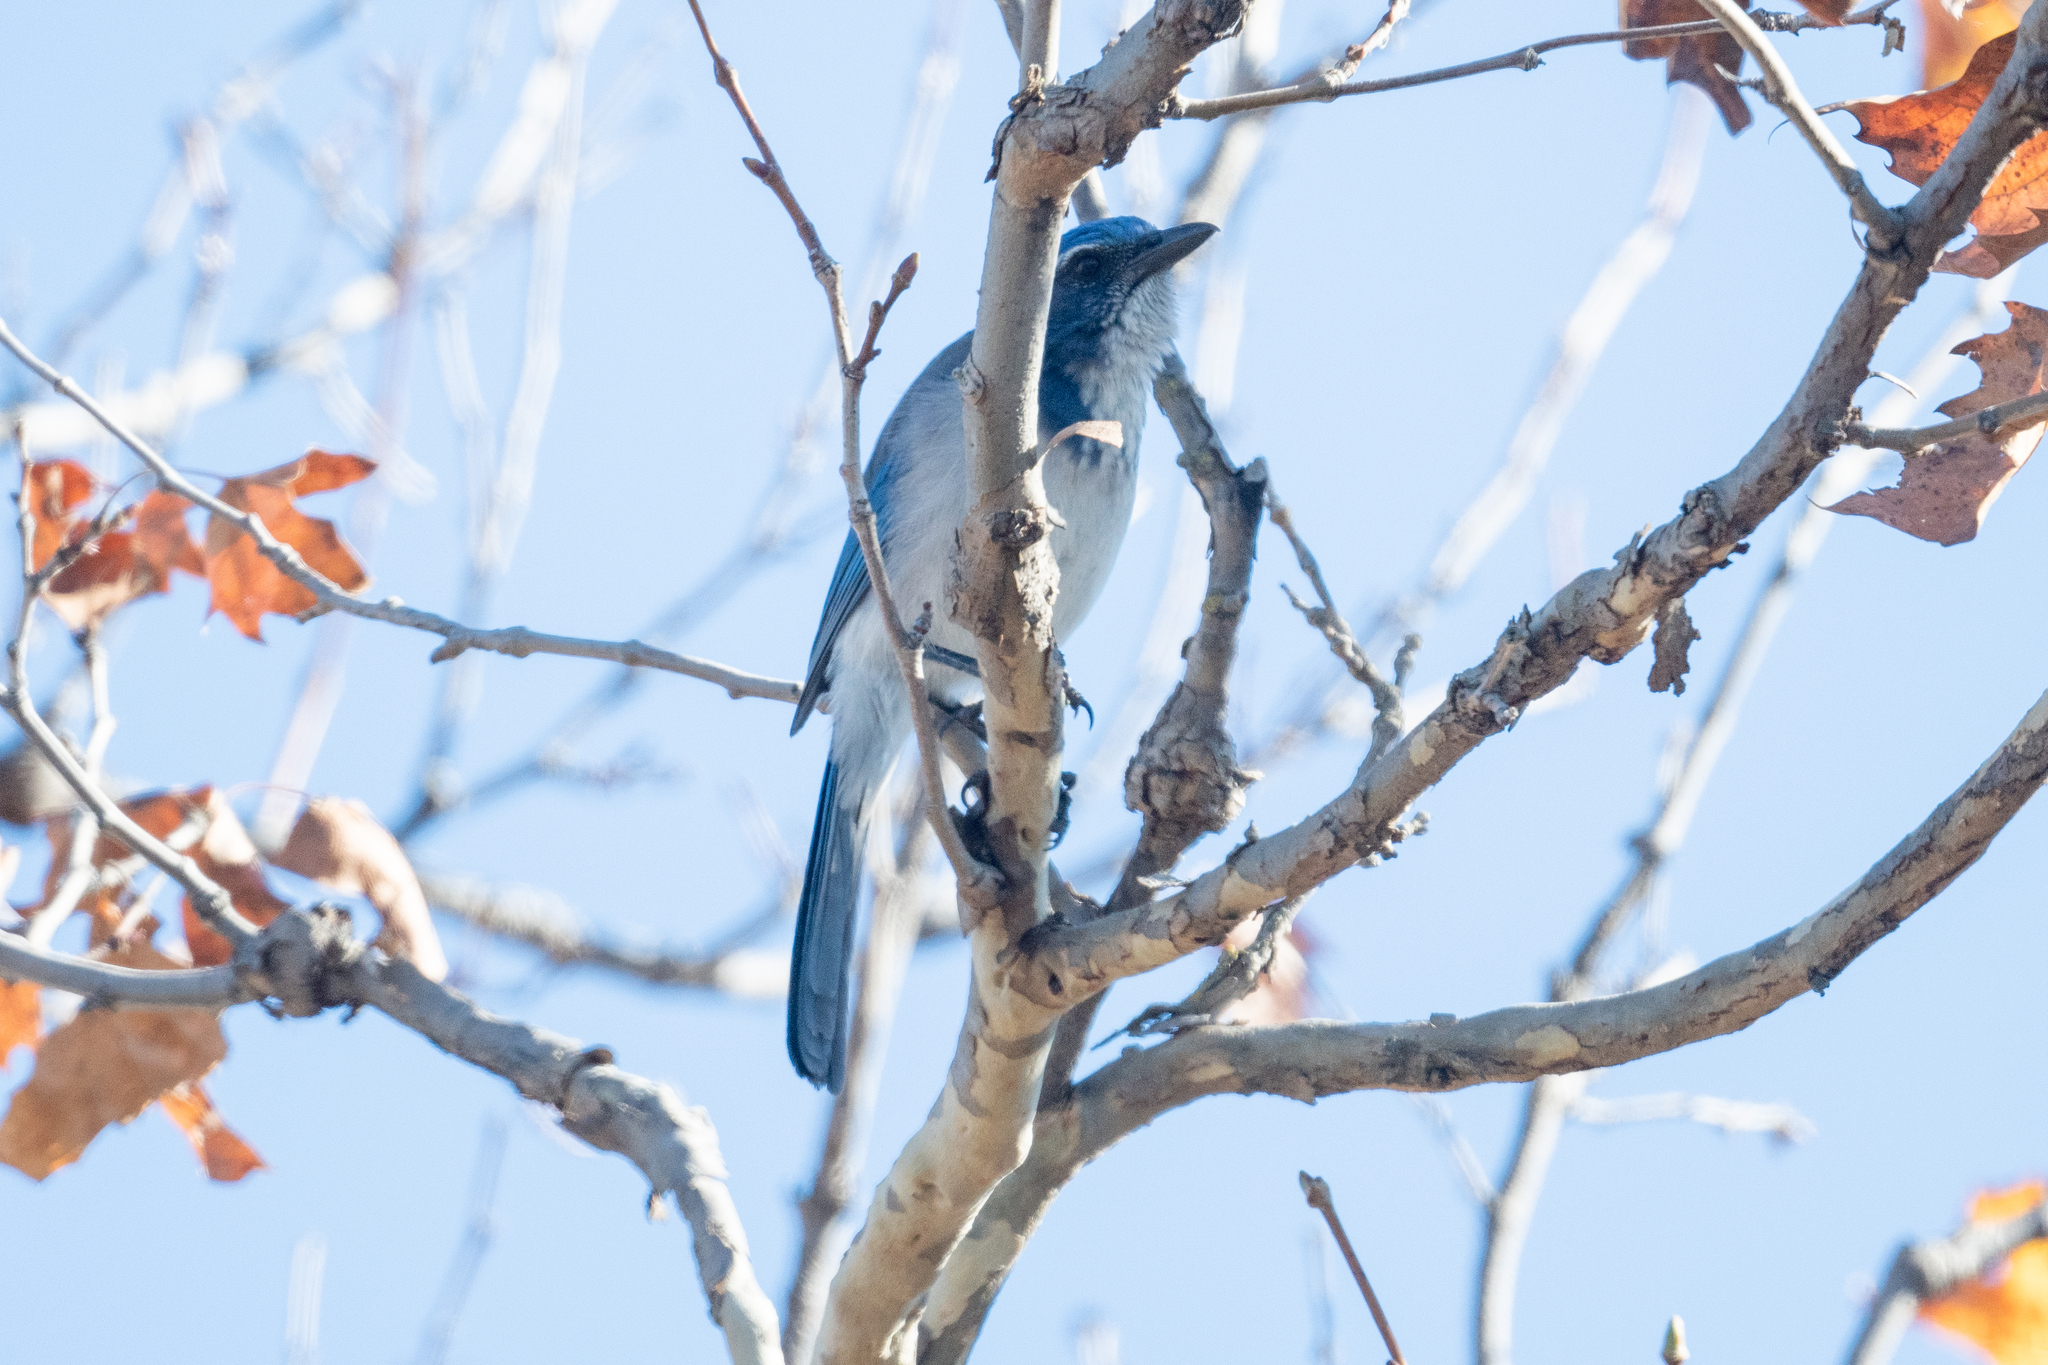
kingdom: Animalia
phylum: Chordata
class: Aves
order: Passeriformes
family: Corvidae
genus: Aphelocoma
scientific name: Aphelocoma californica
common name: California scrub-jay
